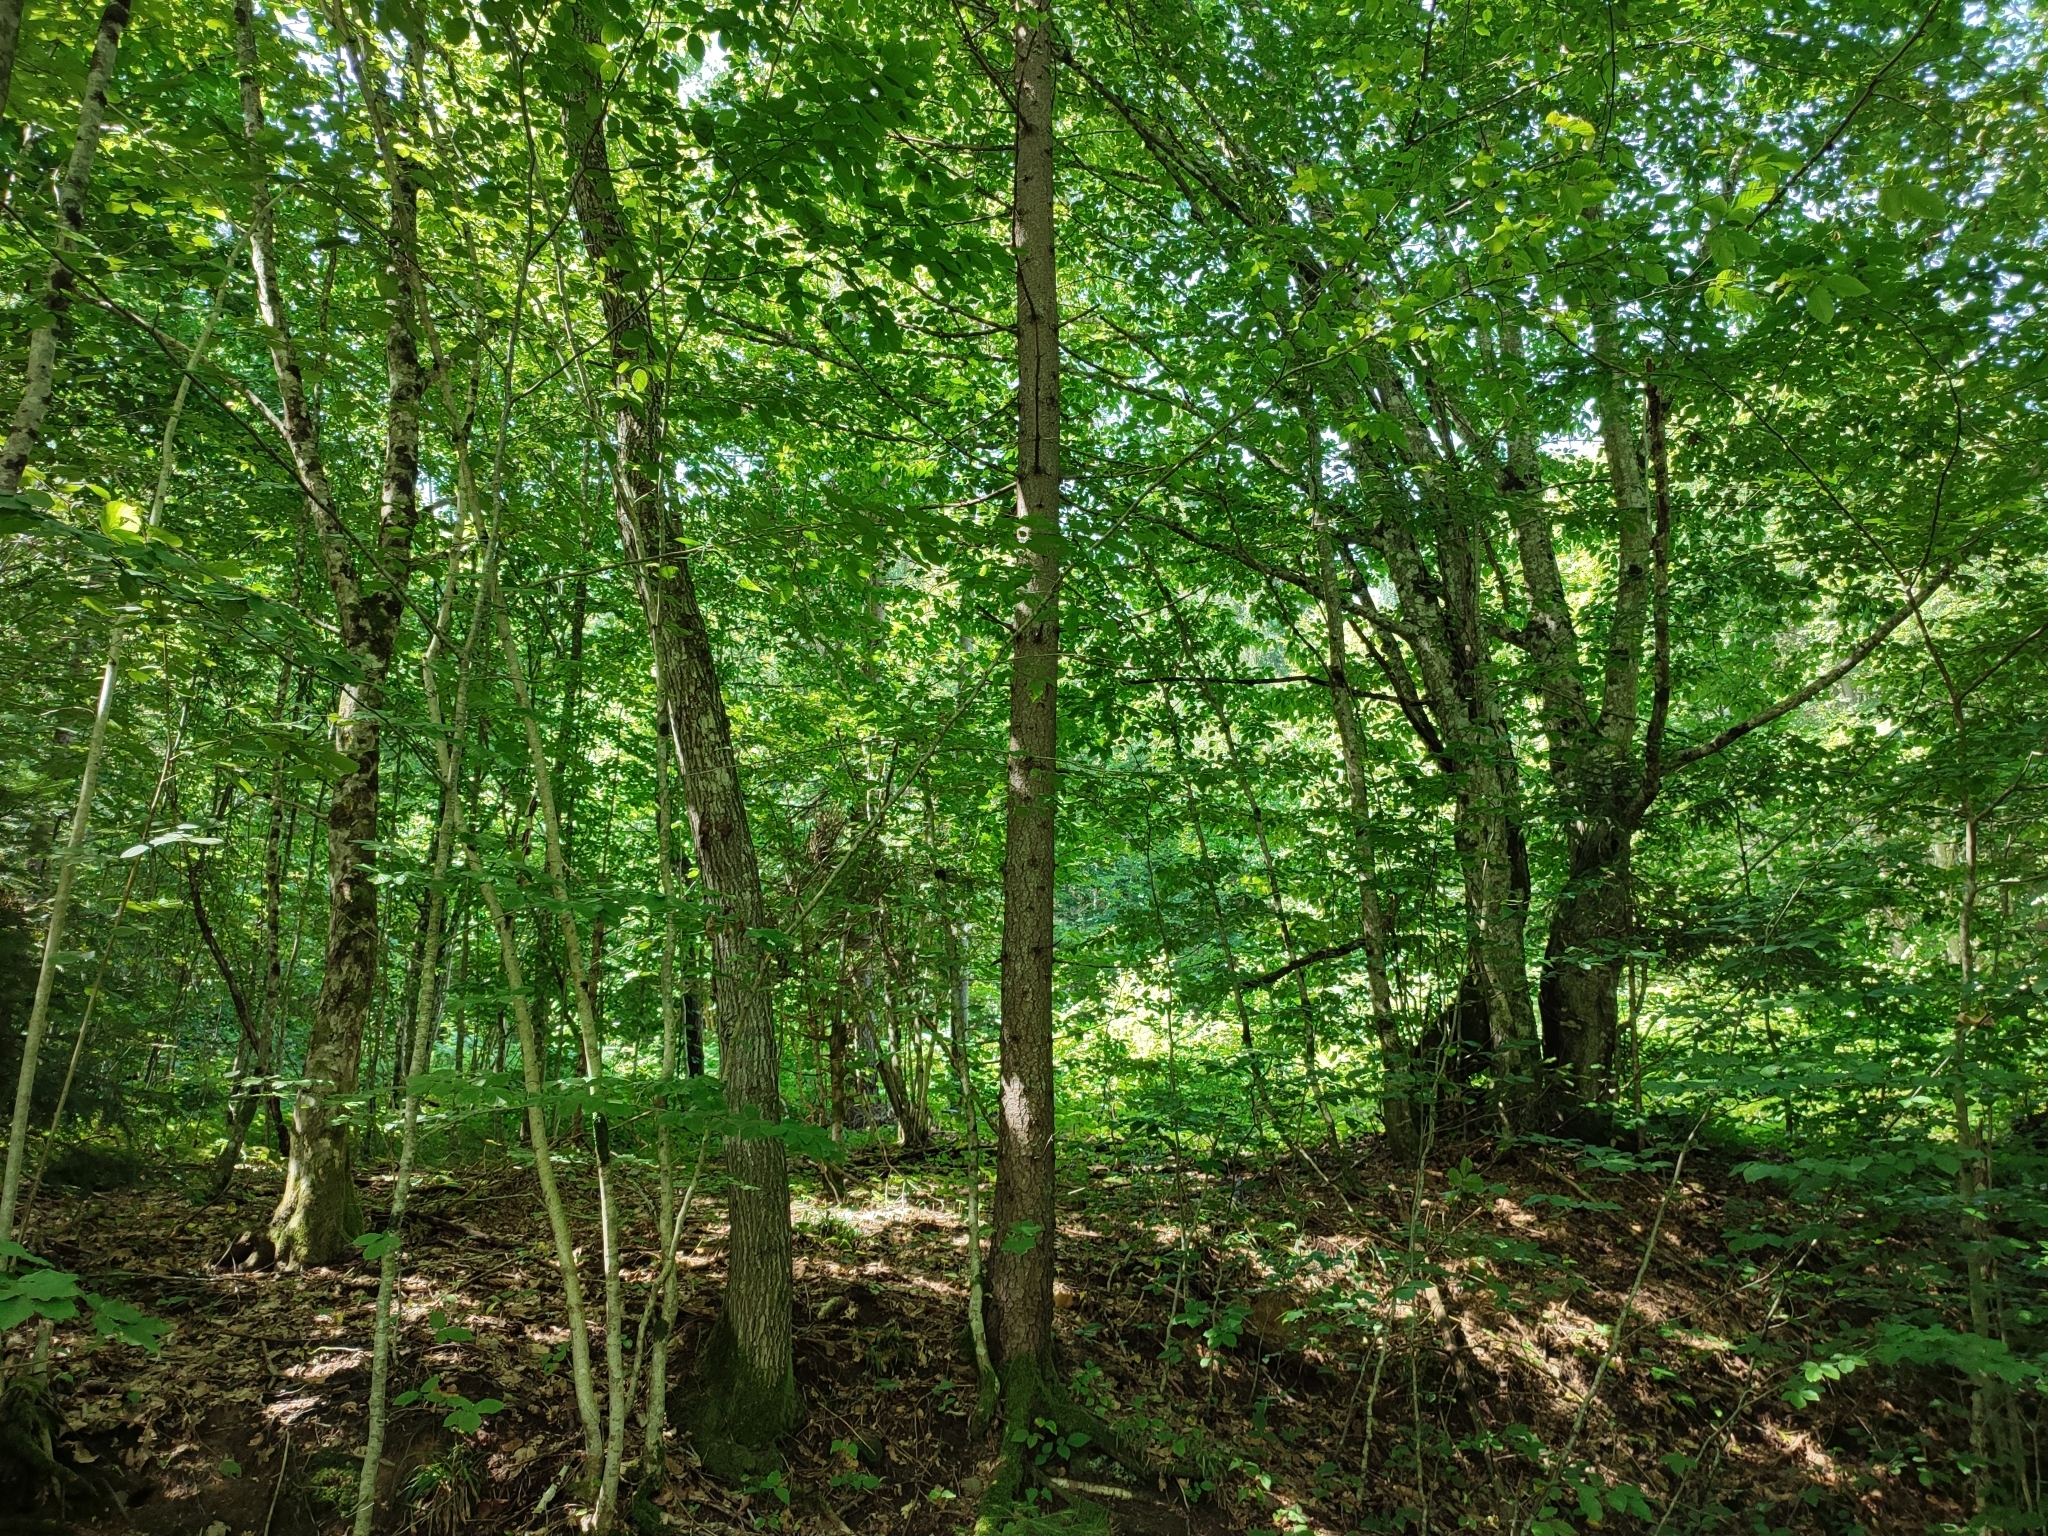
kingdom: Plantae
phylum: Tracheophyta
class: Magnoliopsida
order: Fagales
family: Fagaceae
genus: Fagus
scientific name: Fagus sylvatica
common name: Beech
